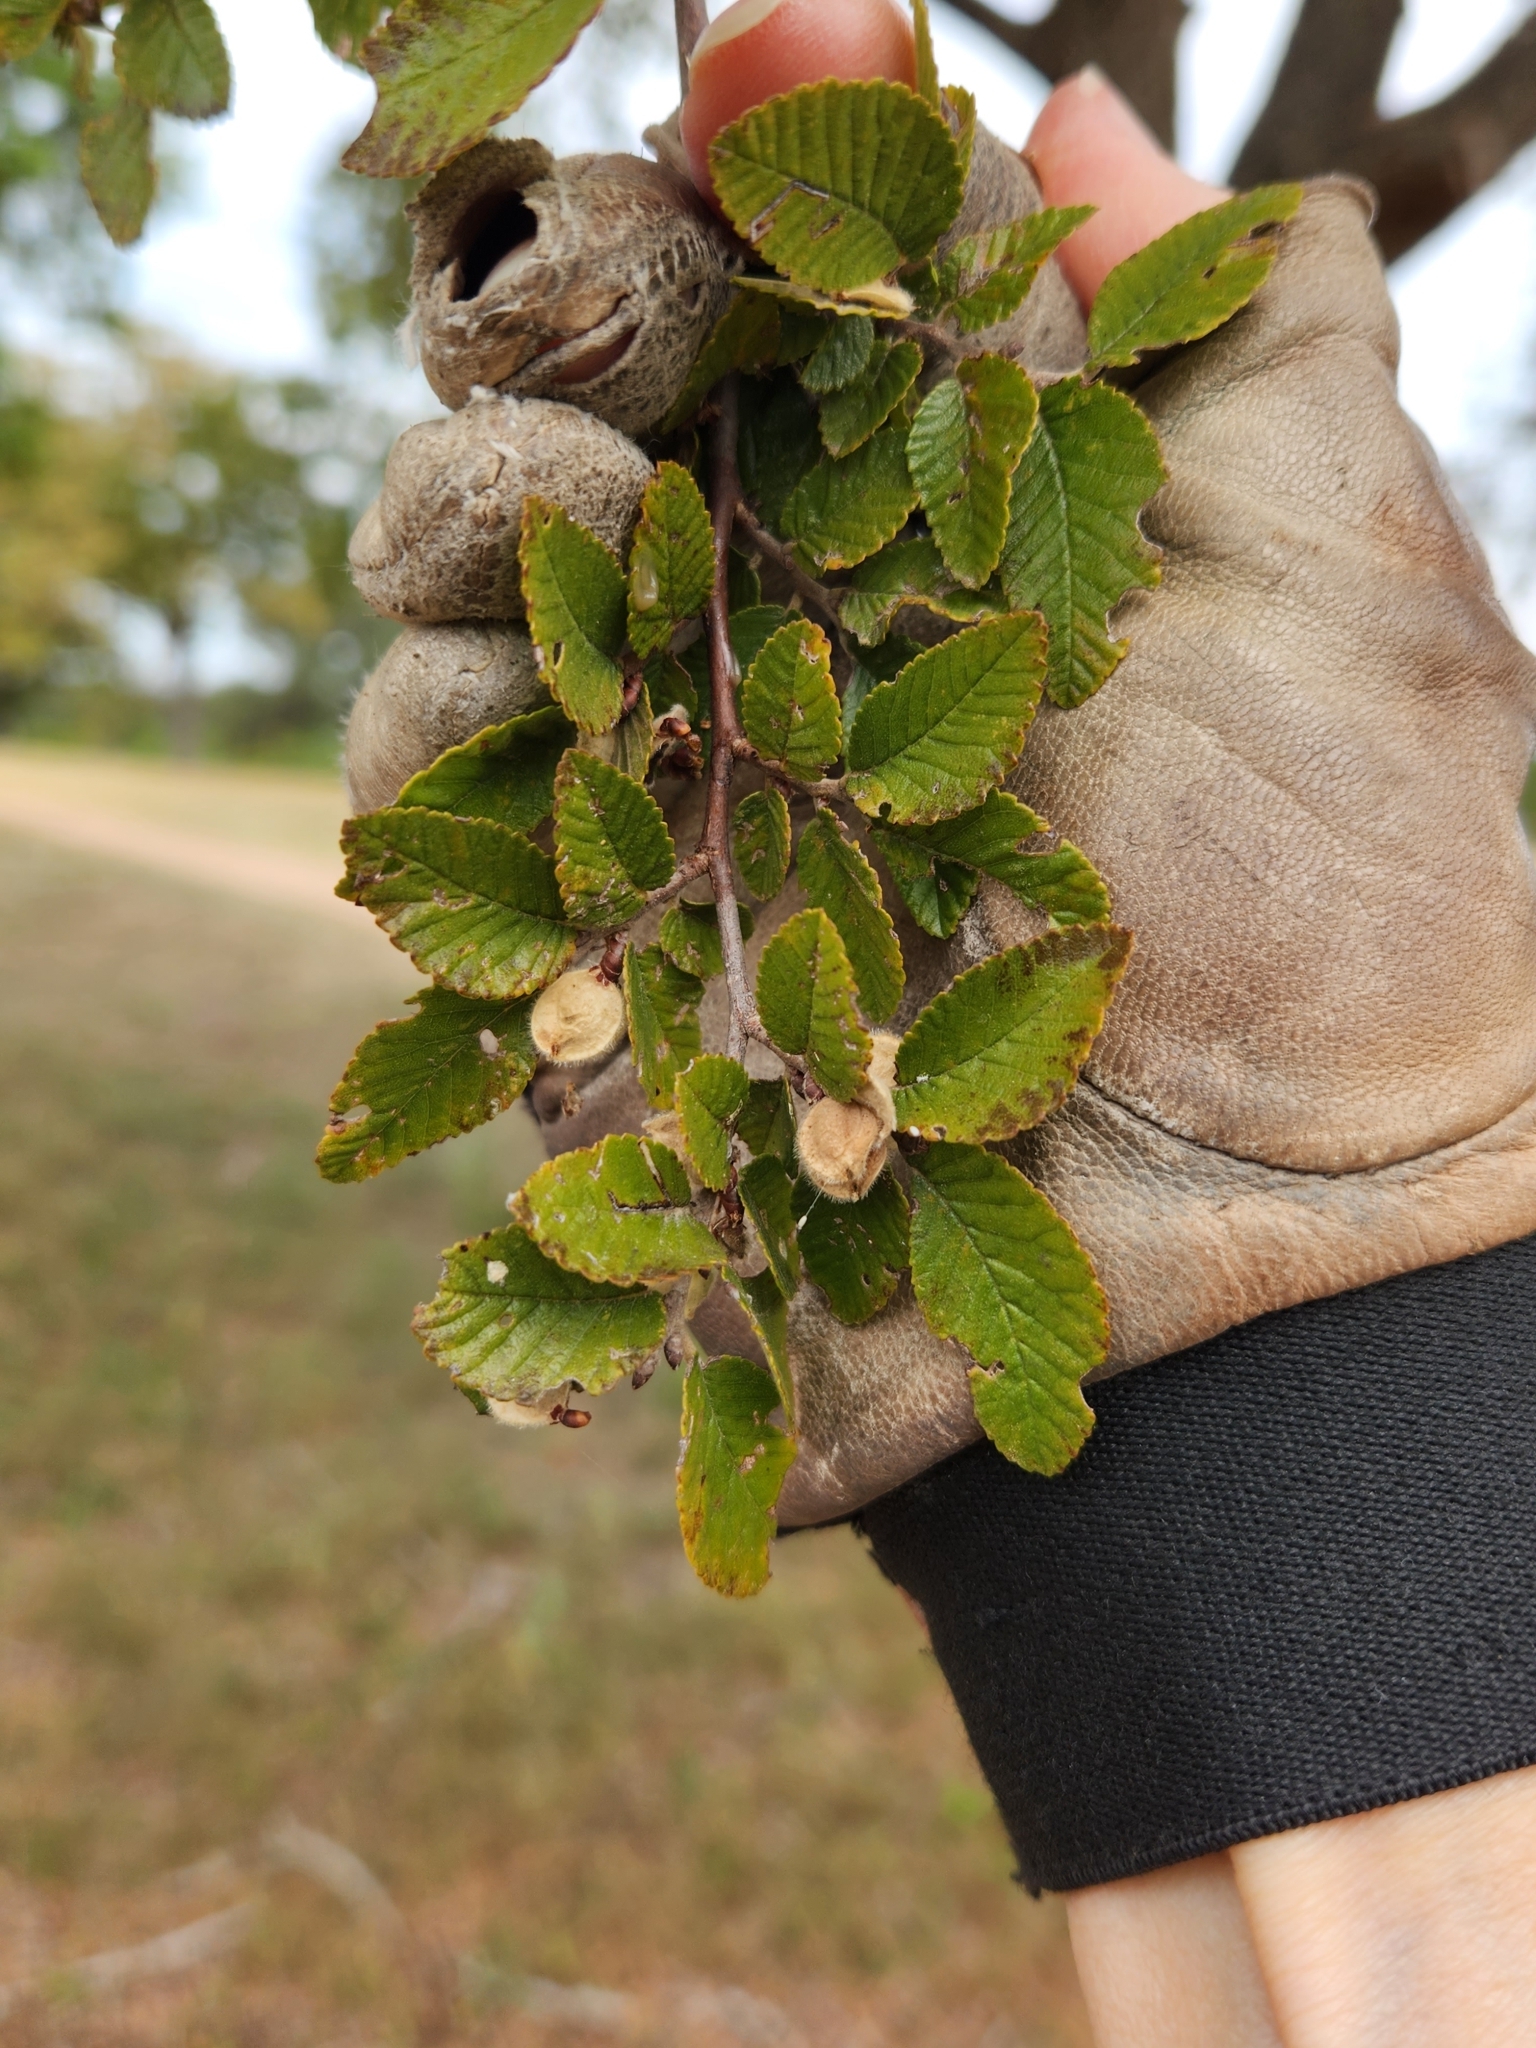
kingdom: Plantae
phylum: Tracheophyta
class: Magnoliopsida
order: Rosales
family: Ulmaceae
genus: Ulmus
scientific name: Ulmus crassifolia
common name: Basket elm
